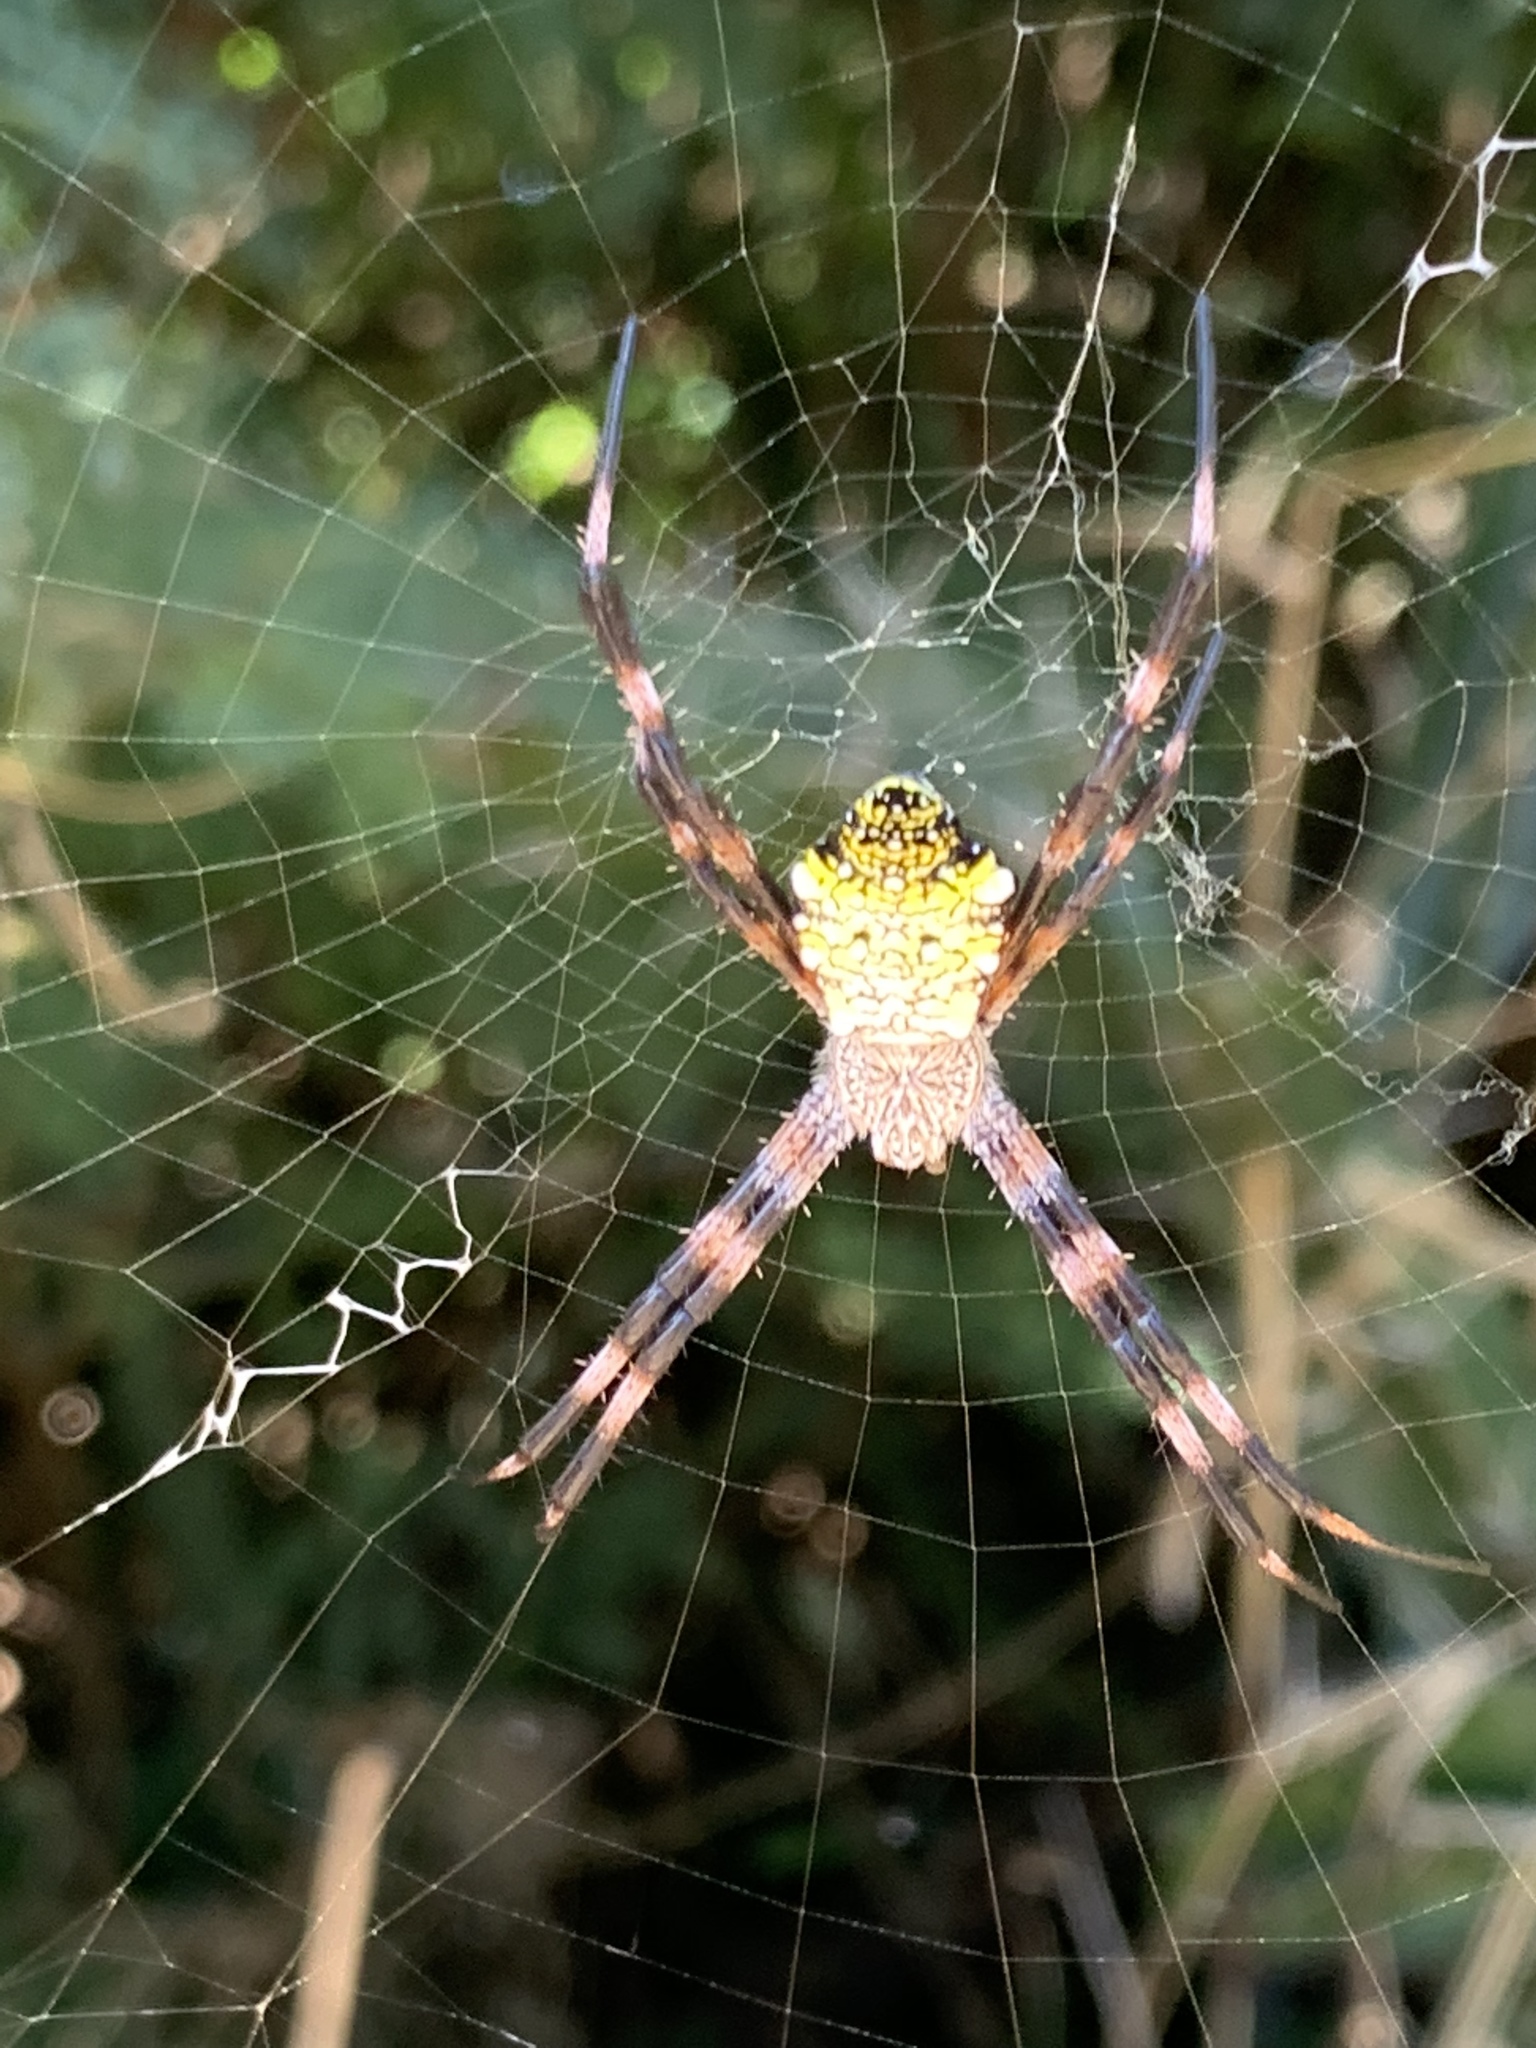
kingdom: Animalia
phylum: Arthropoda
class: Arachnida
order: Araneae
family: Araneidae
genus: Argiope
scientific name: Argiope appensa
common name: Garden spider
